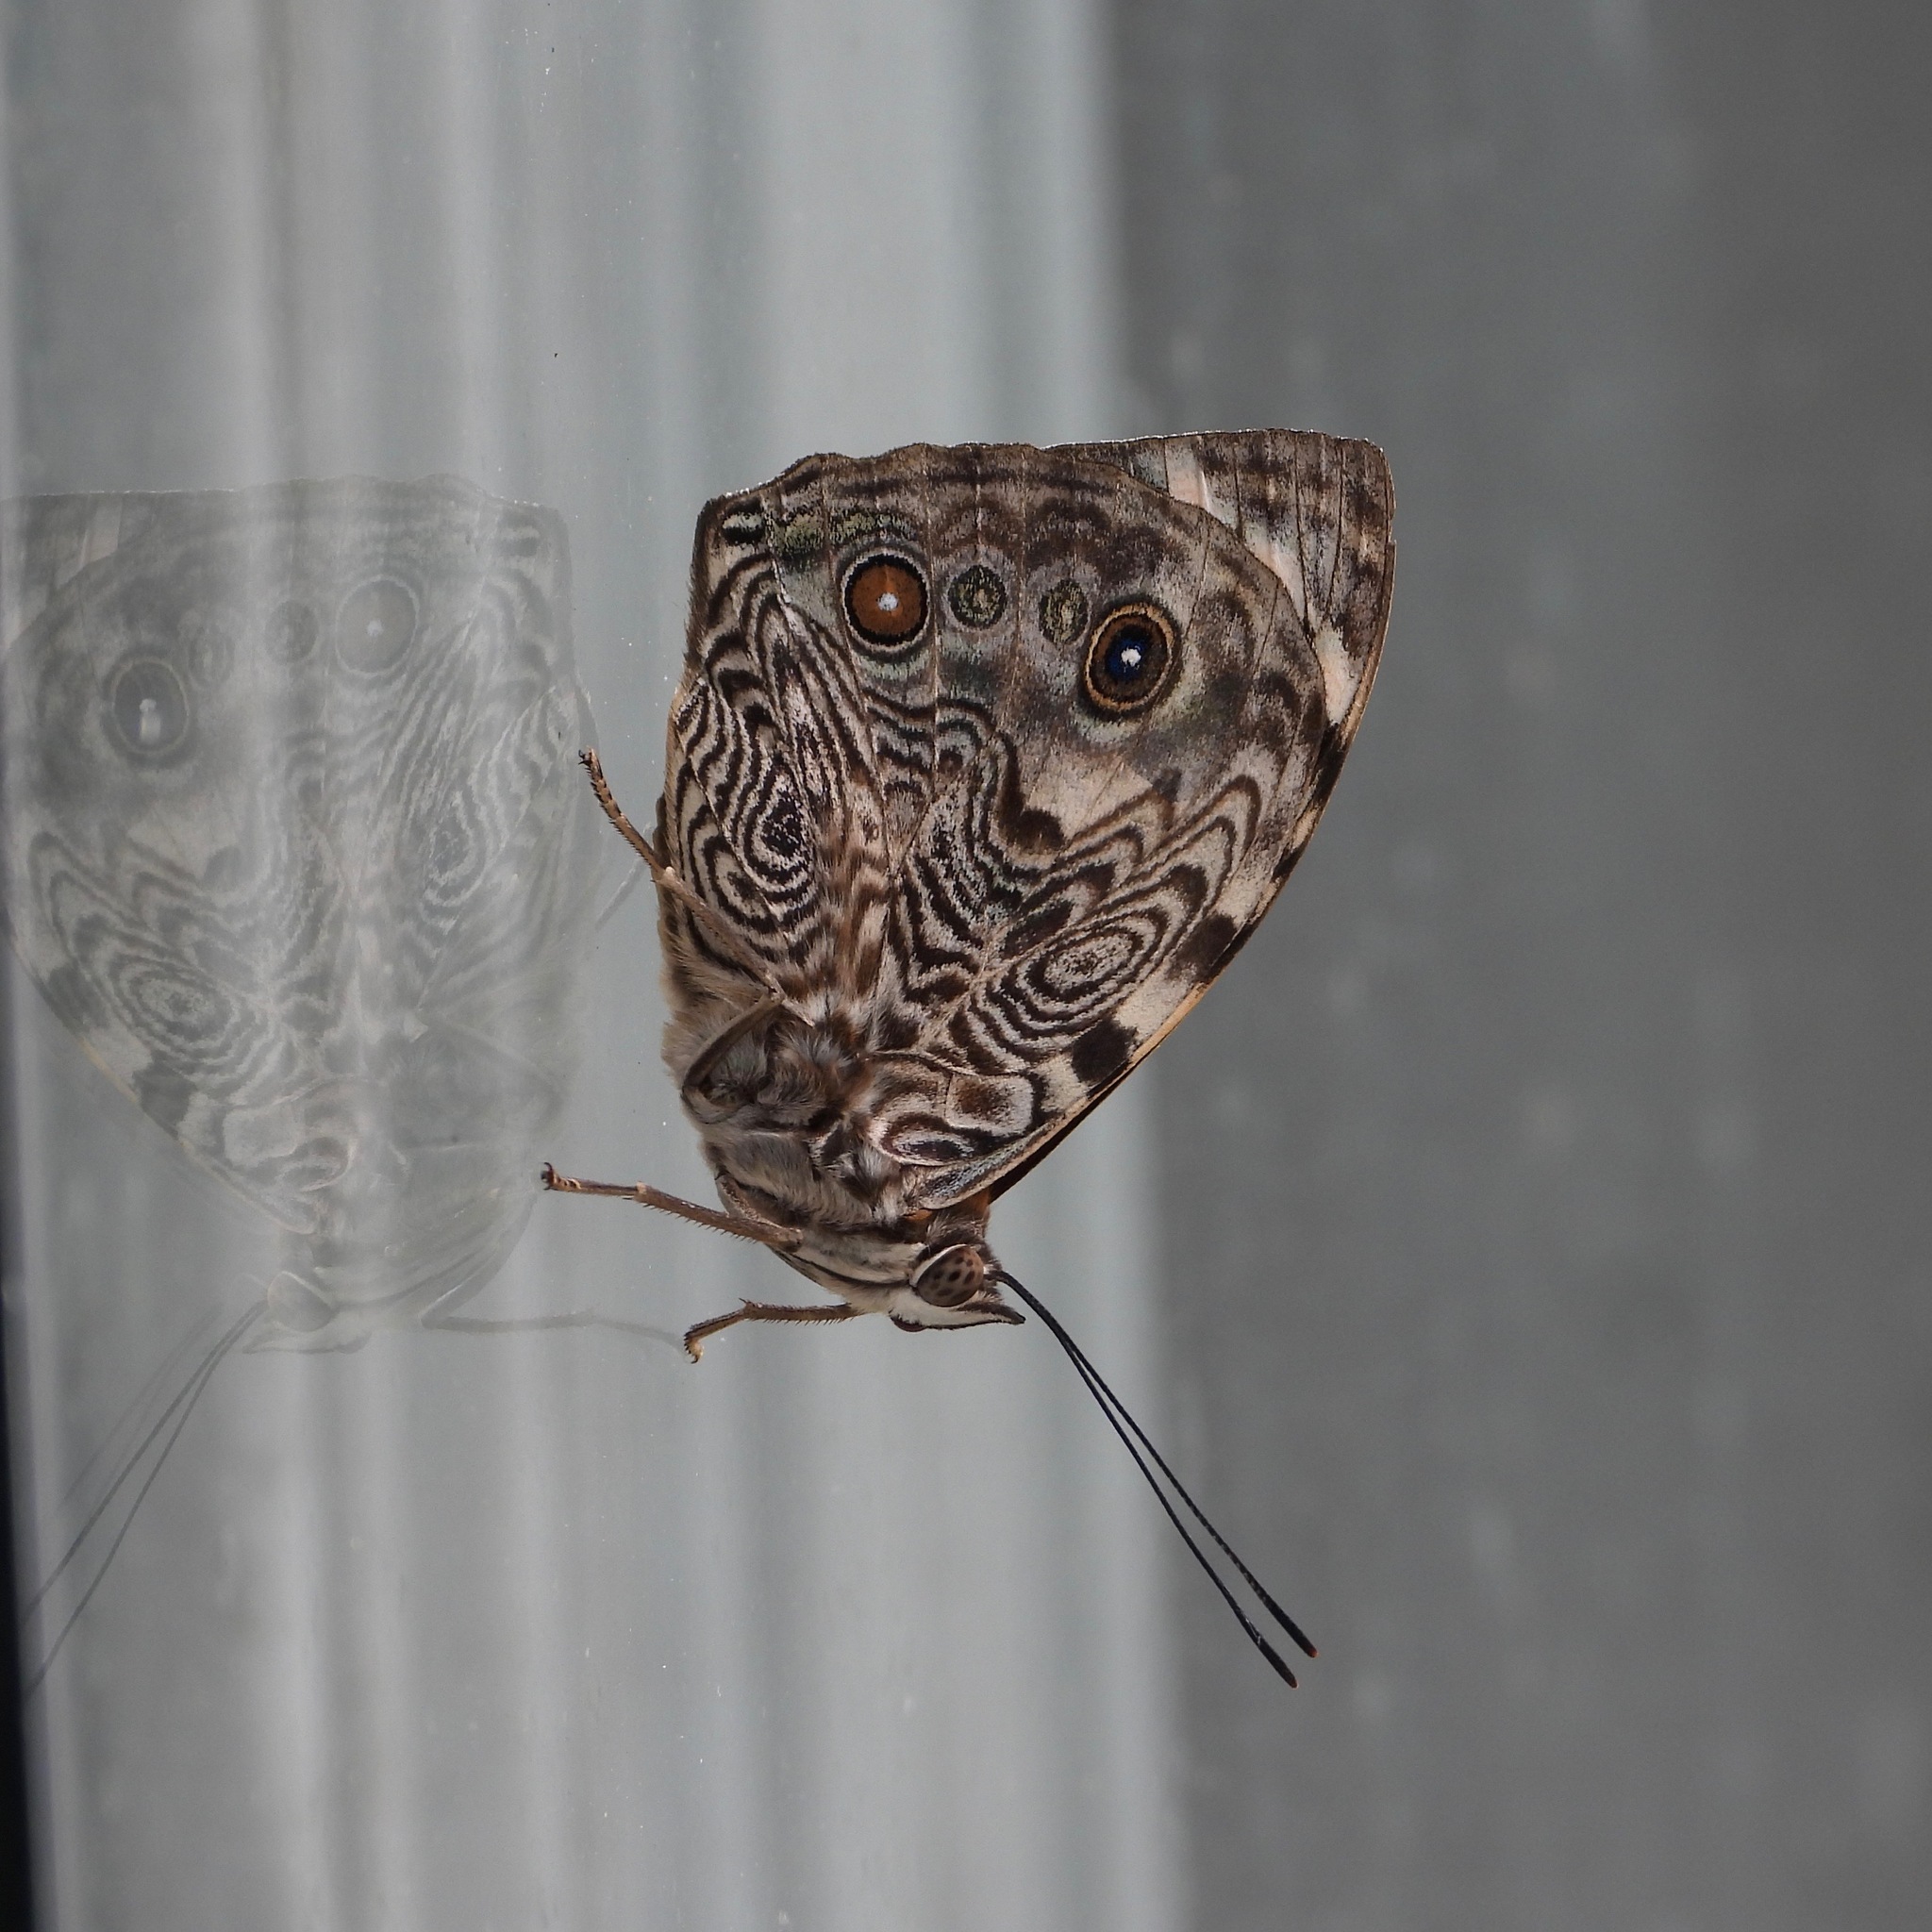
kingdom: Animalia
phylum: Arthropoda
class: Insecta
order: Lepidoptera
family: Nymphalidae
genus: Smyrna
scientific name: Smyrna karwinskii
